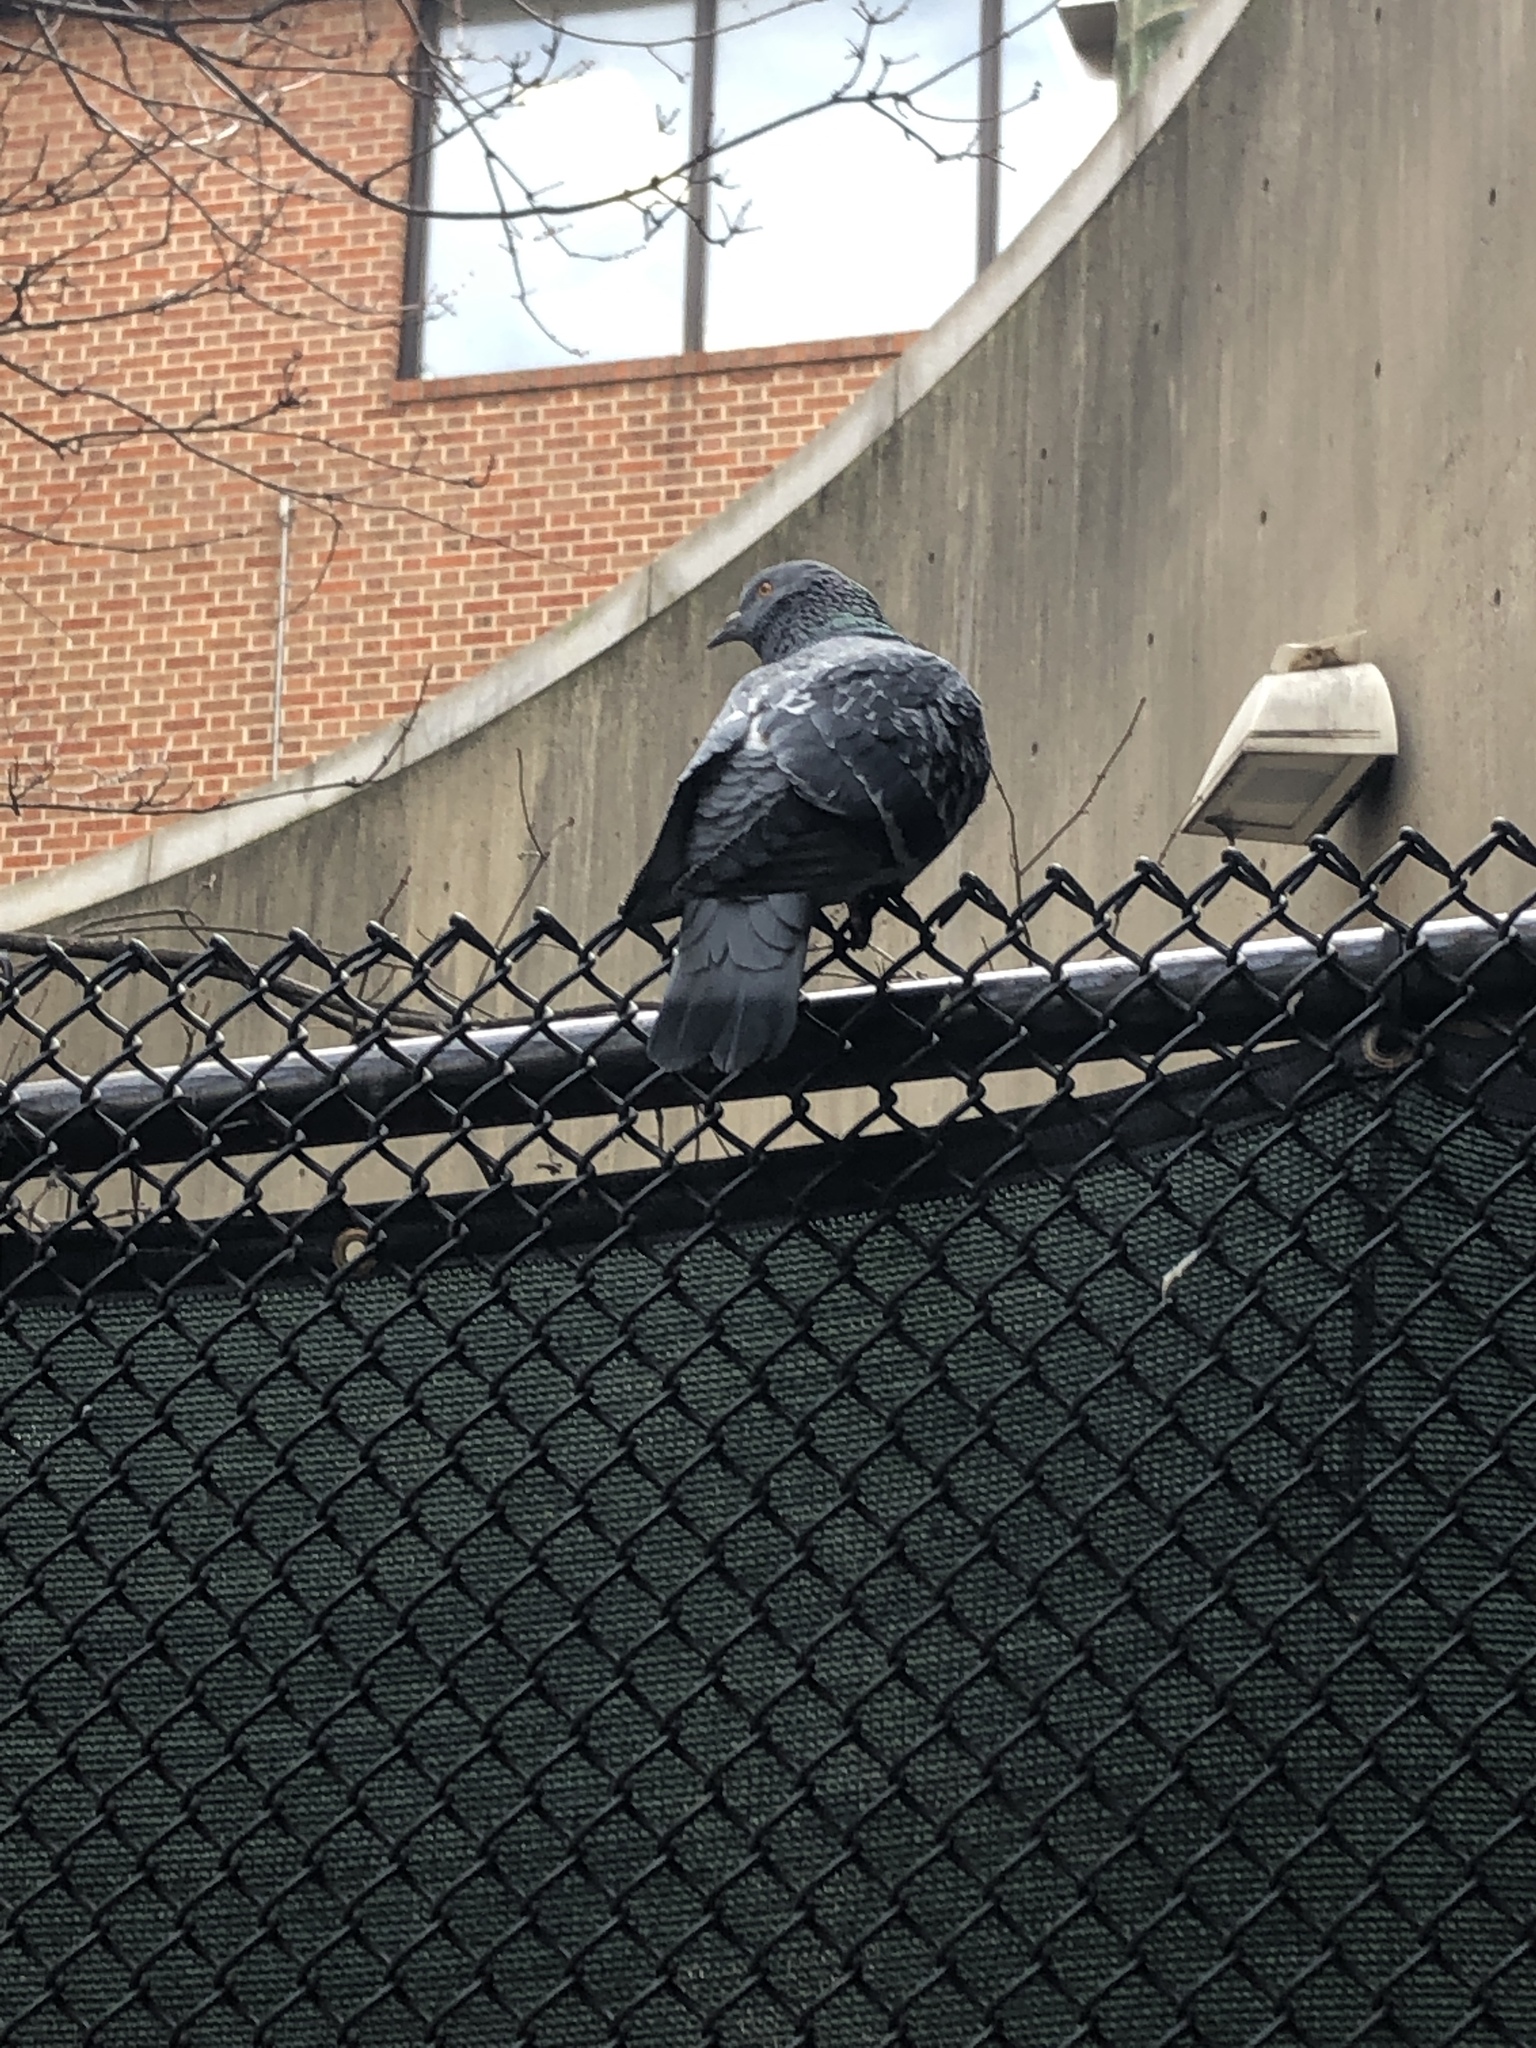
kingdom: Animalia
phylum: Chordata
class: Aves
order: Columbiformes
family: Columbidae
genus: Columba
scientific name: Columba livia
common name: Rock pigeon
